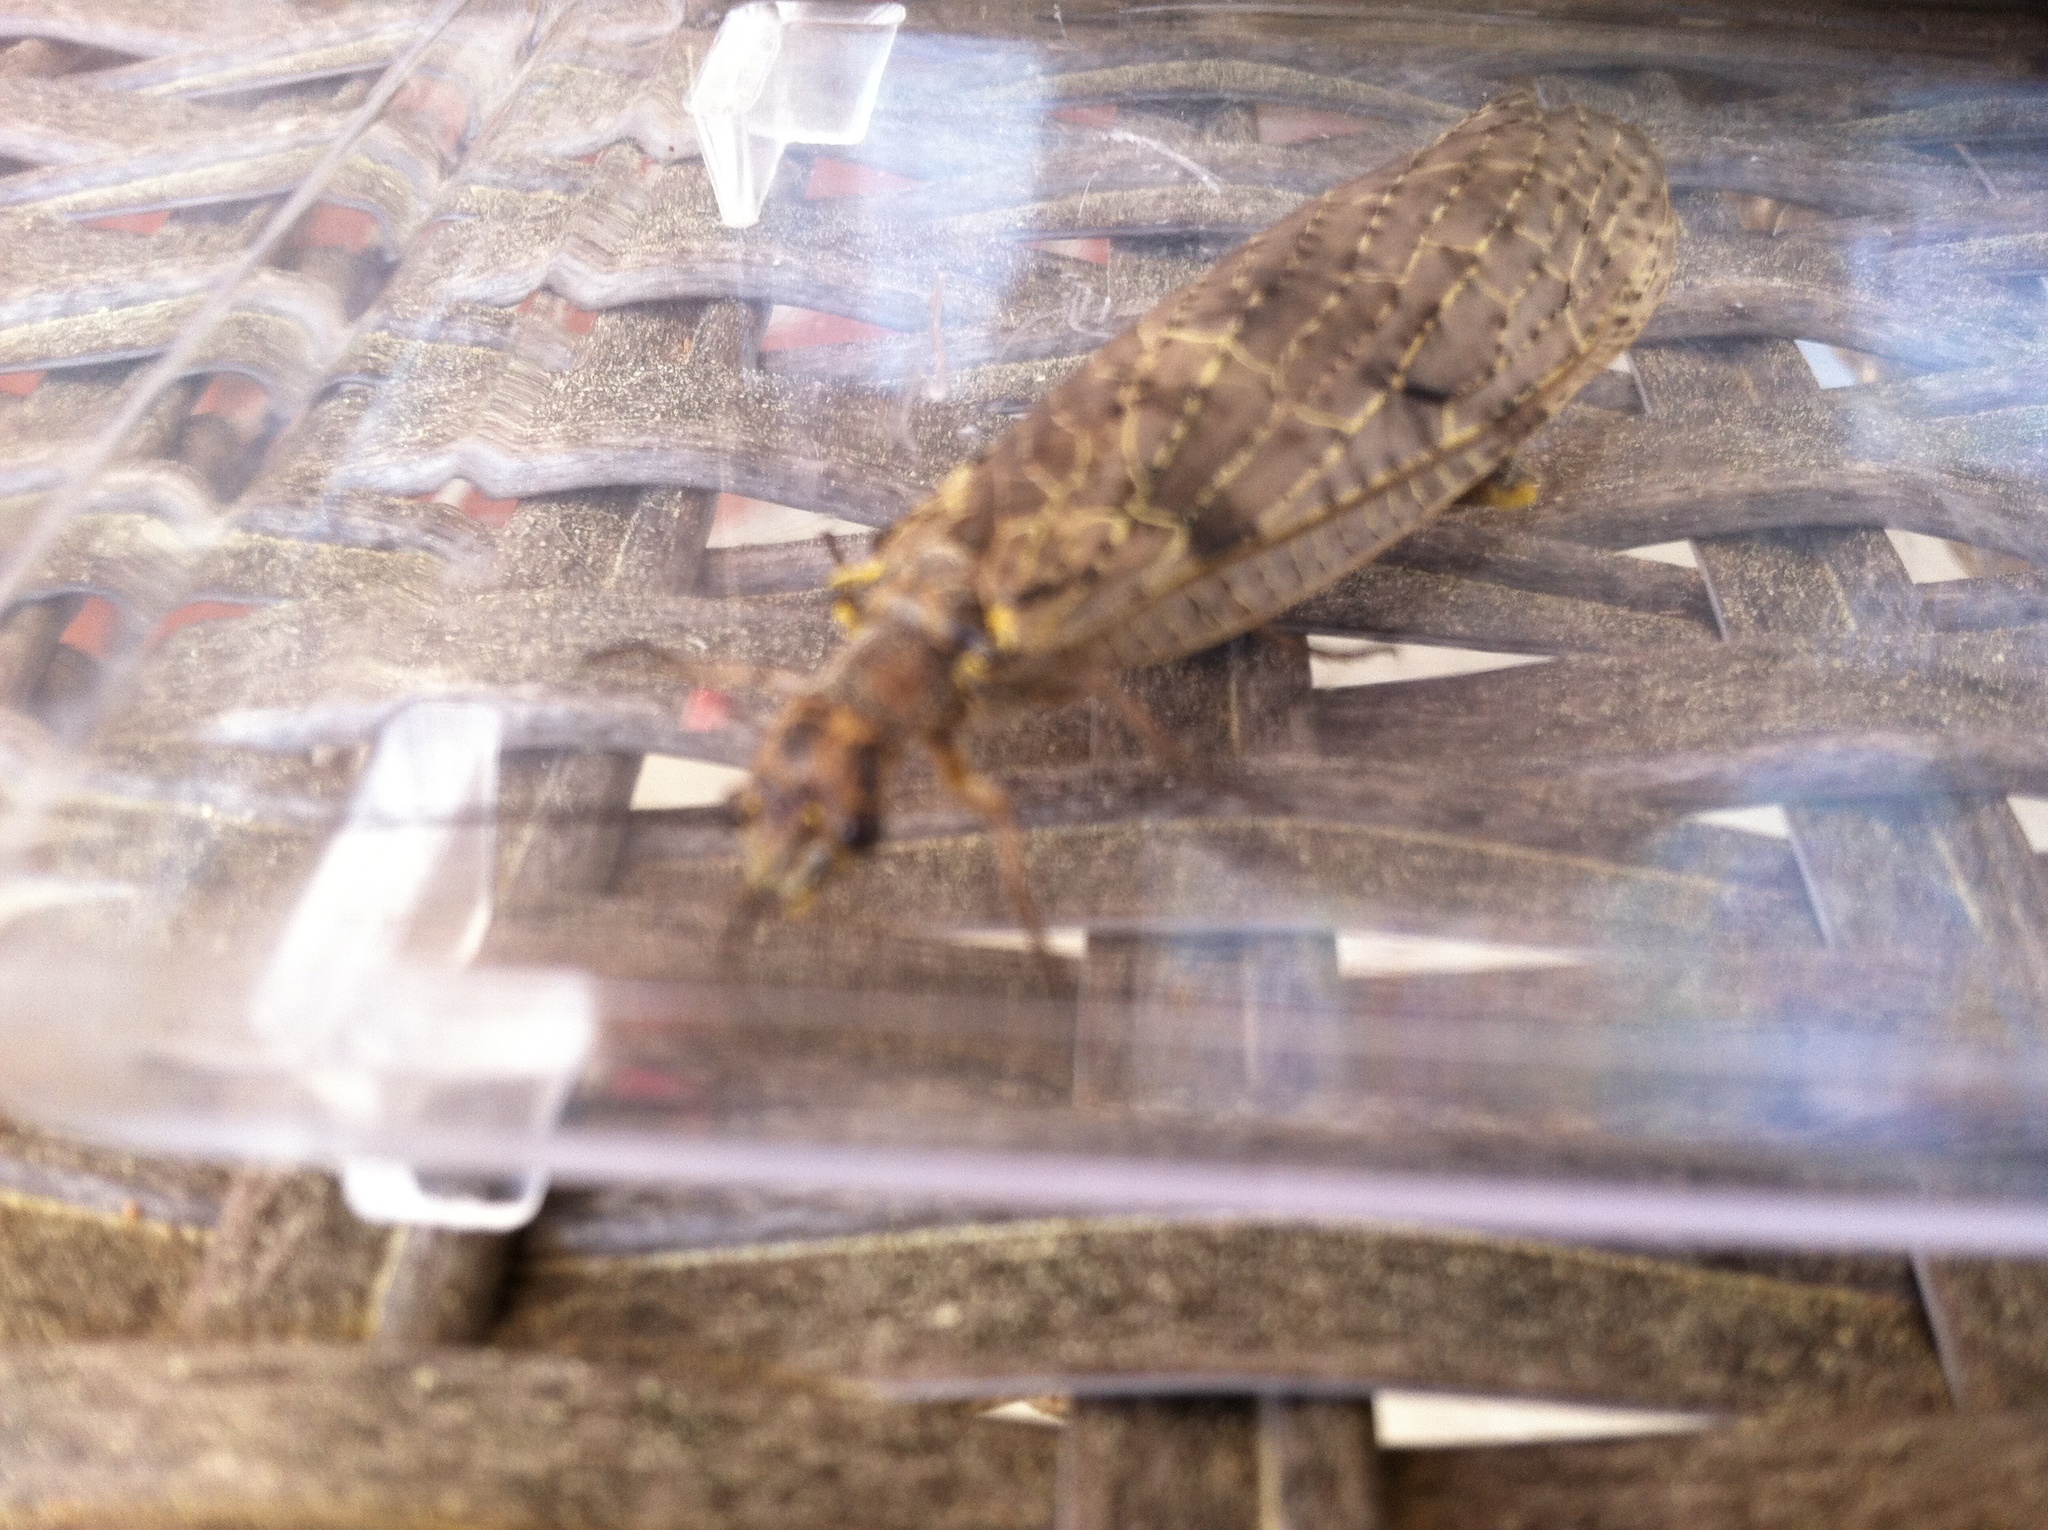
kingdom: Animalia
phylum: Arthropoda
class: Insecta
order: Megaloptera
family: Corydalidae
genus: Chauliodes
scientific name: Chauliodes rastricornis
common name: Spring fishfly
